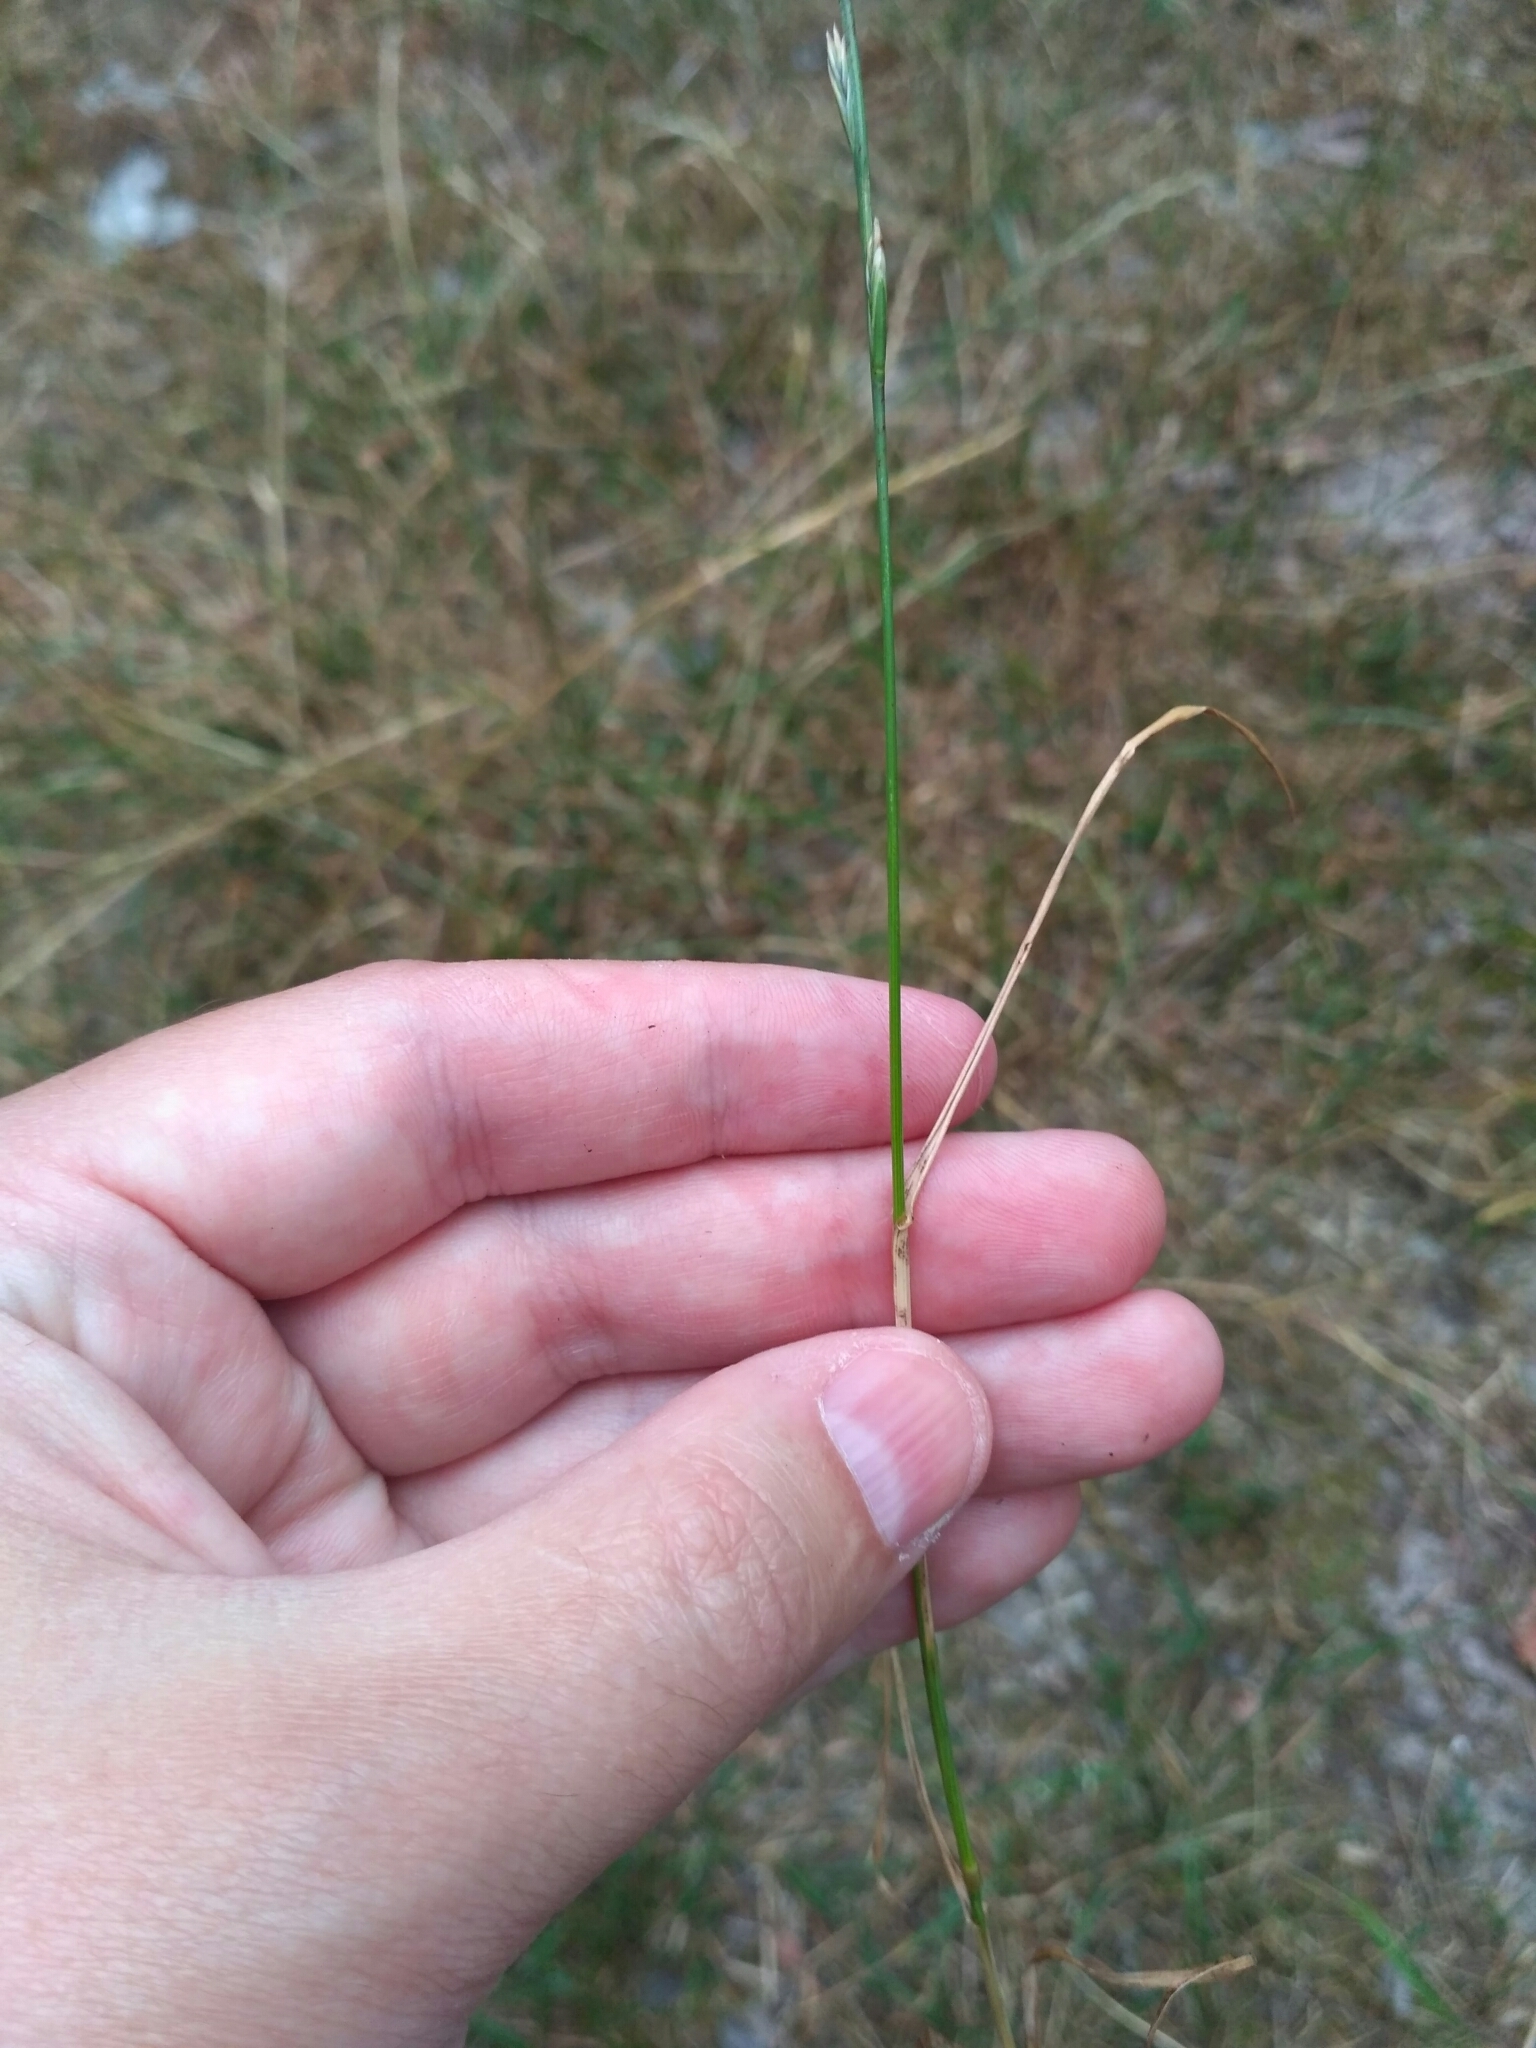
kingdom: Plantae
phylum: Tracheophyta
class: Liliopsida
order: Poales
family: Poaceae
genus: Lolium
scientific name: Lolium perenne
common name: Perennial ryegrass
